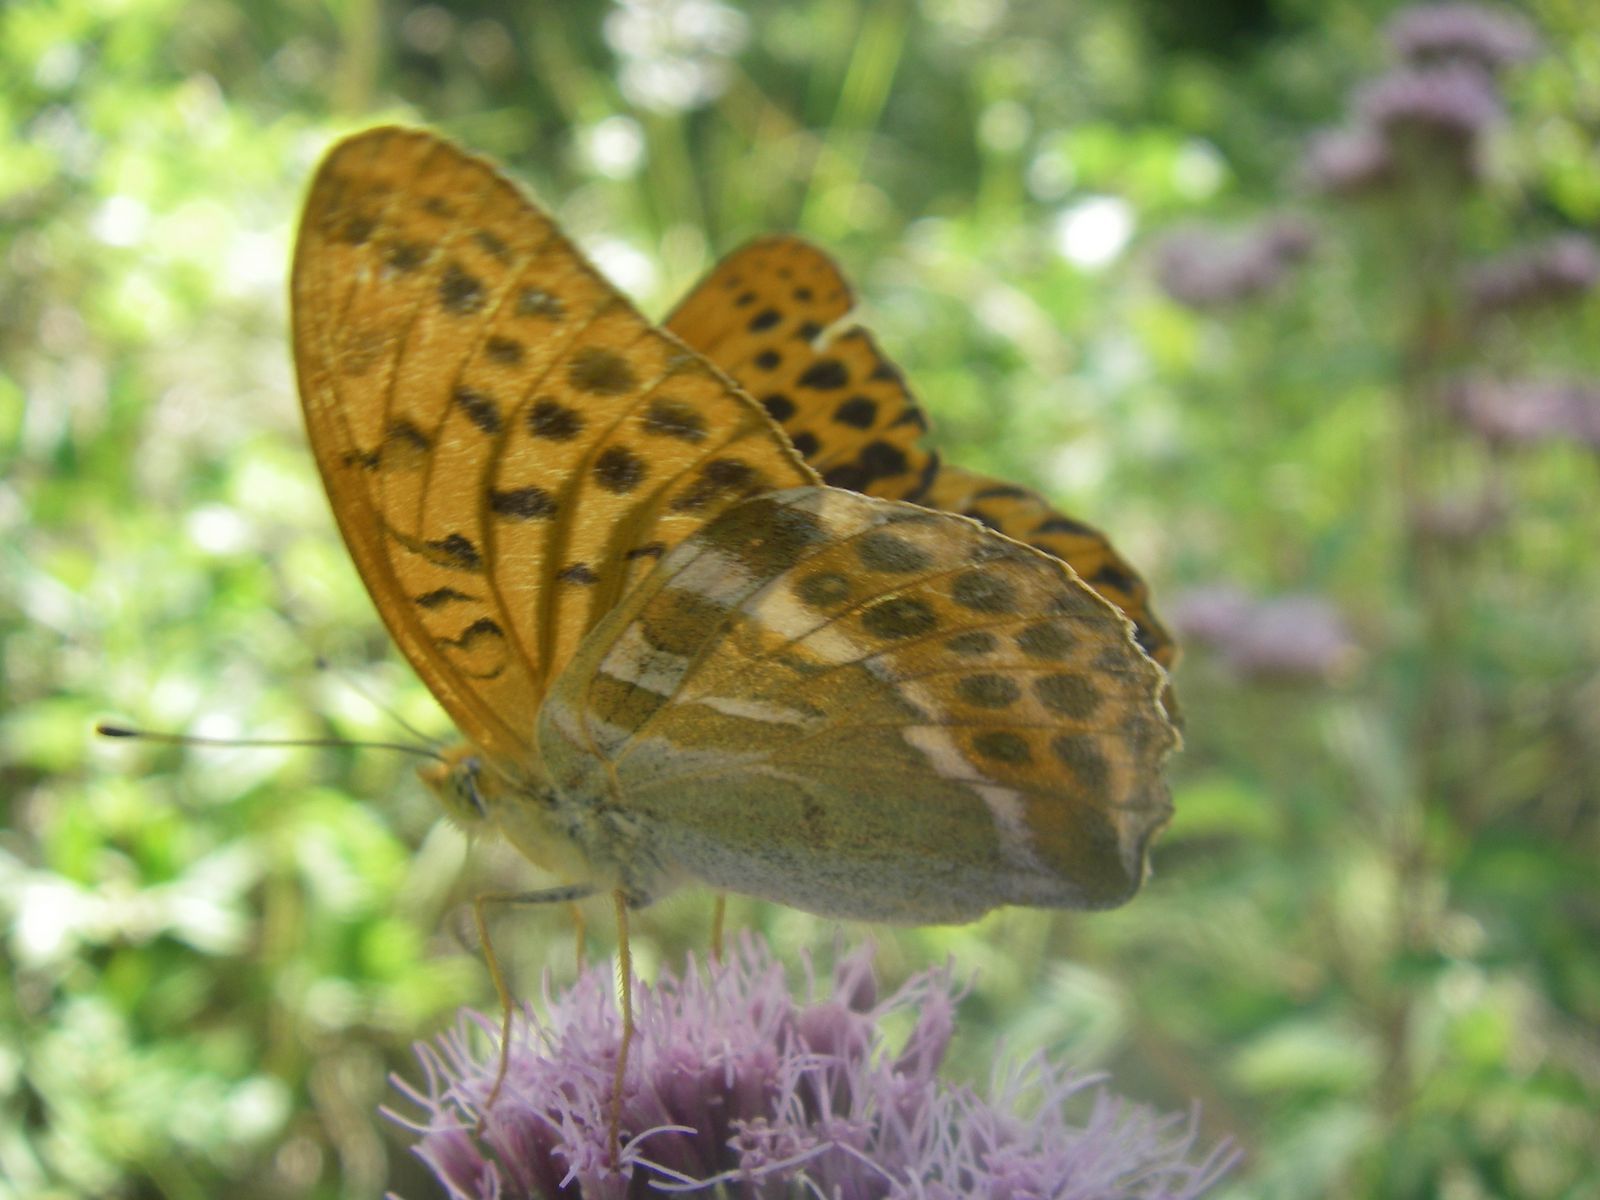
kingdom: Animalia
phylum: Arthropoda
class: Insecta
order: Lepidoptera
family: Nymphalidae
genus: Argynnis
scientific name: Argynnis paphia
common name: Silver-washed fritillary
